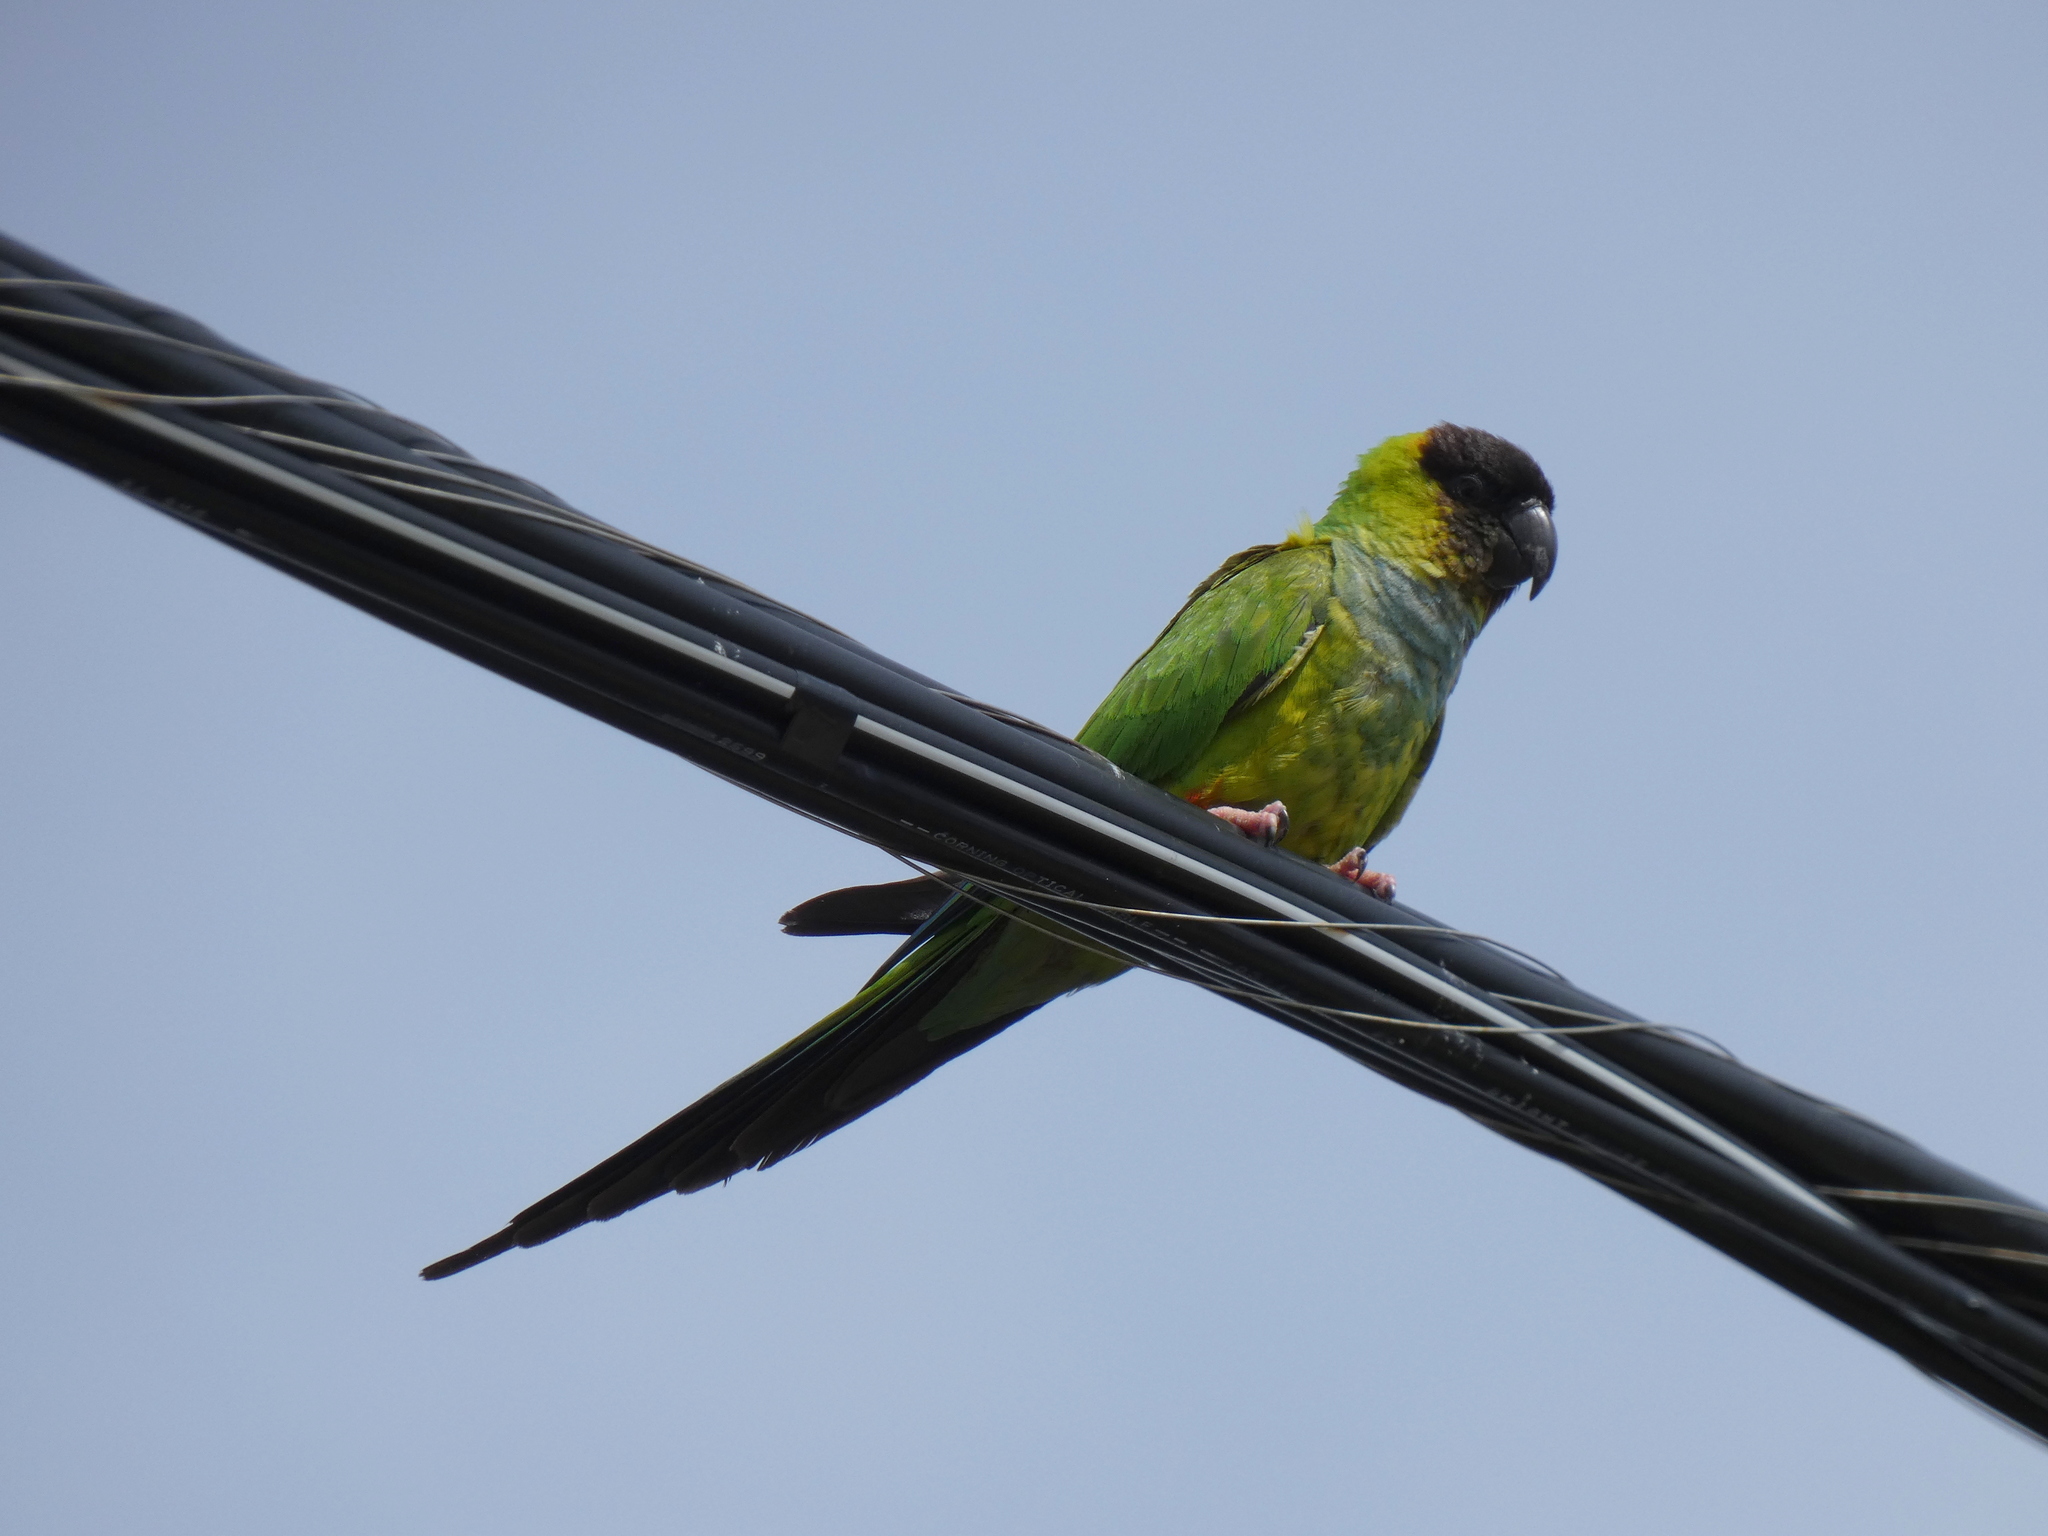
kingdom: Animalia
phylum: Chordata
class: Aves
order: Psittaciformes
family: Psittacidae
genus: Nandayus
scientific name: Nandayus nenday
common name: Nanday parakeet
